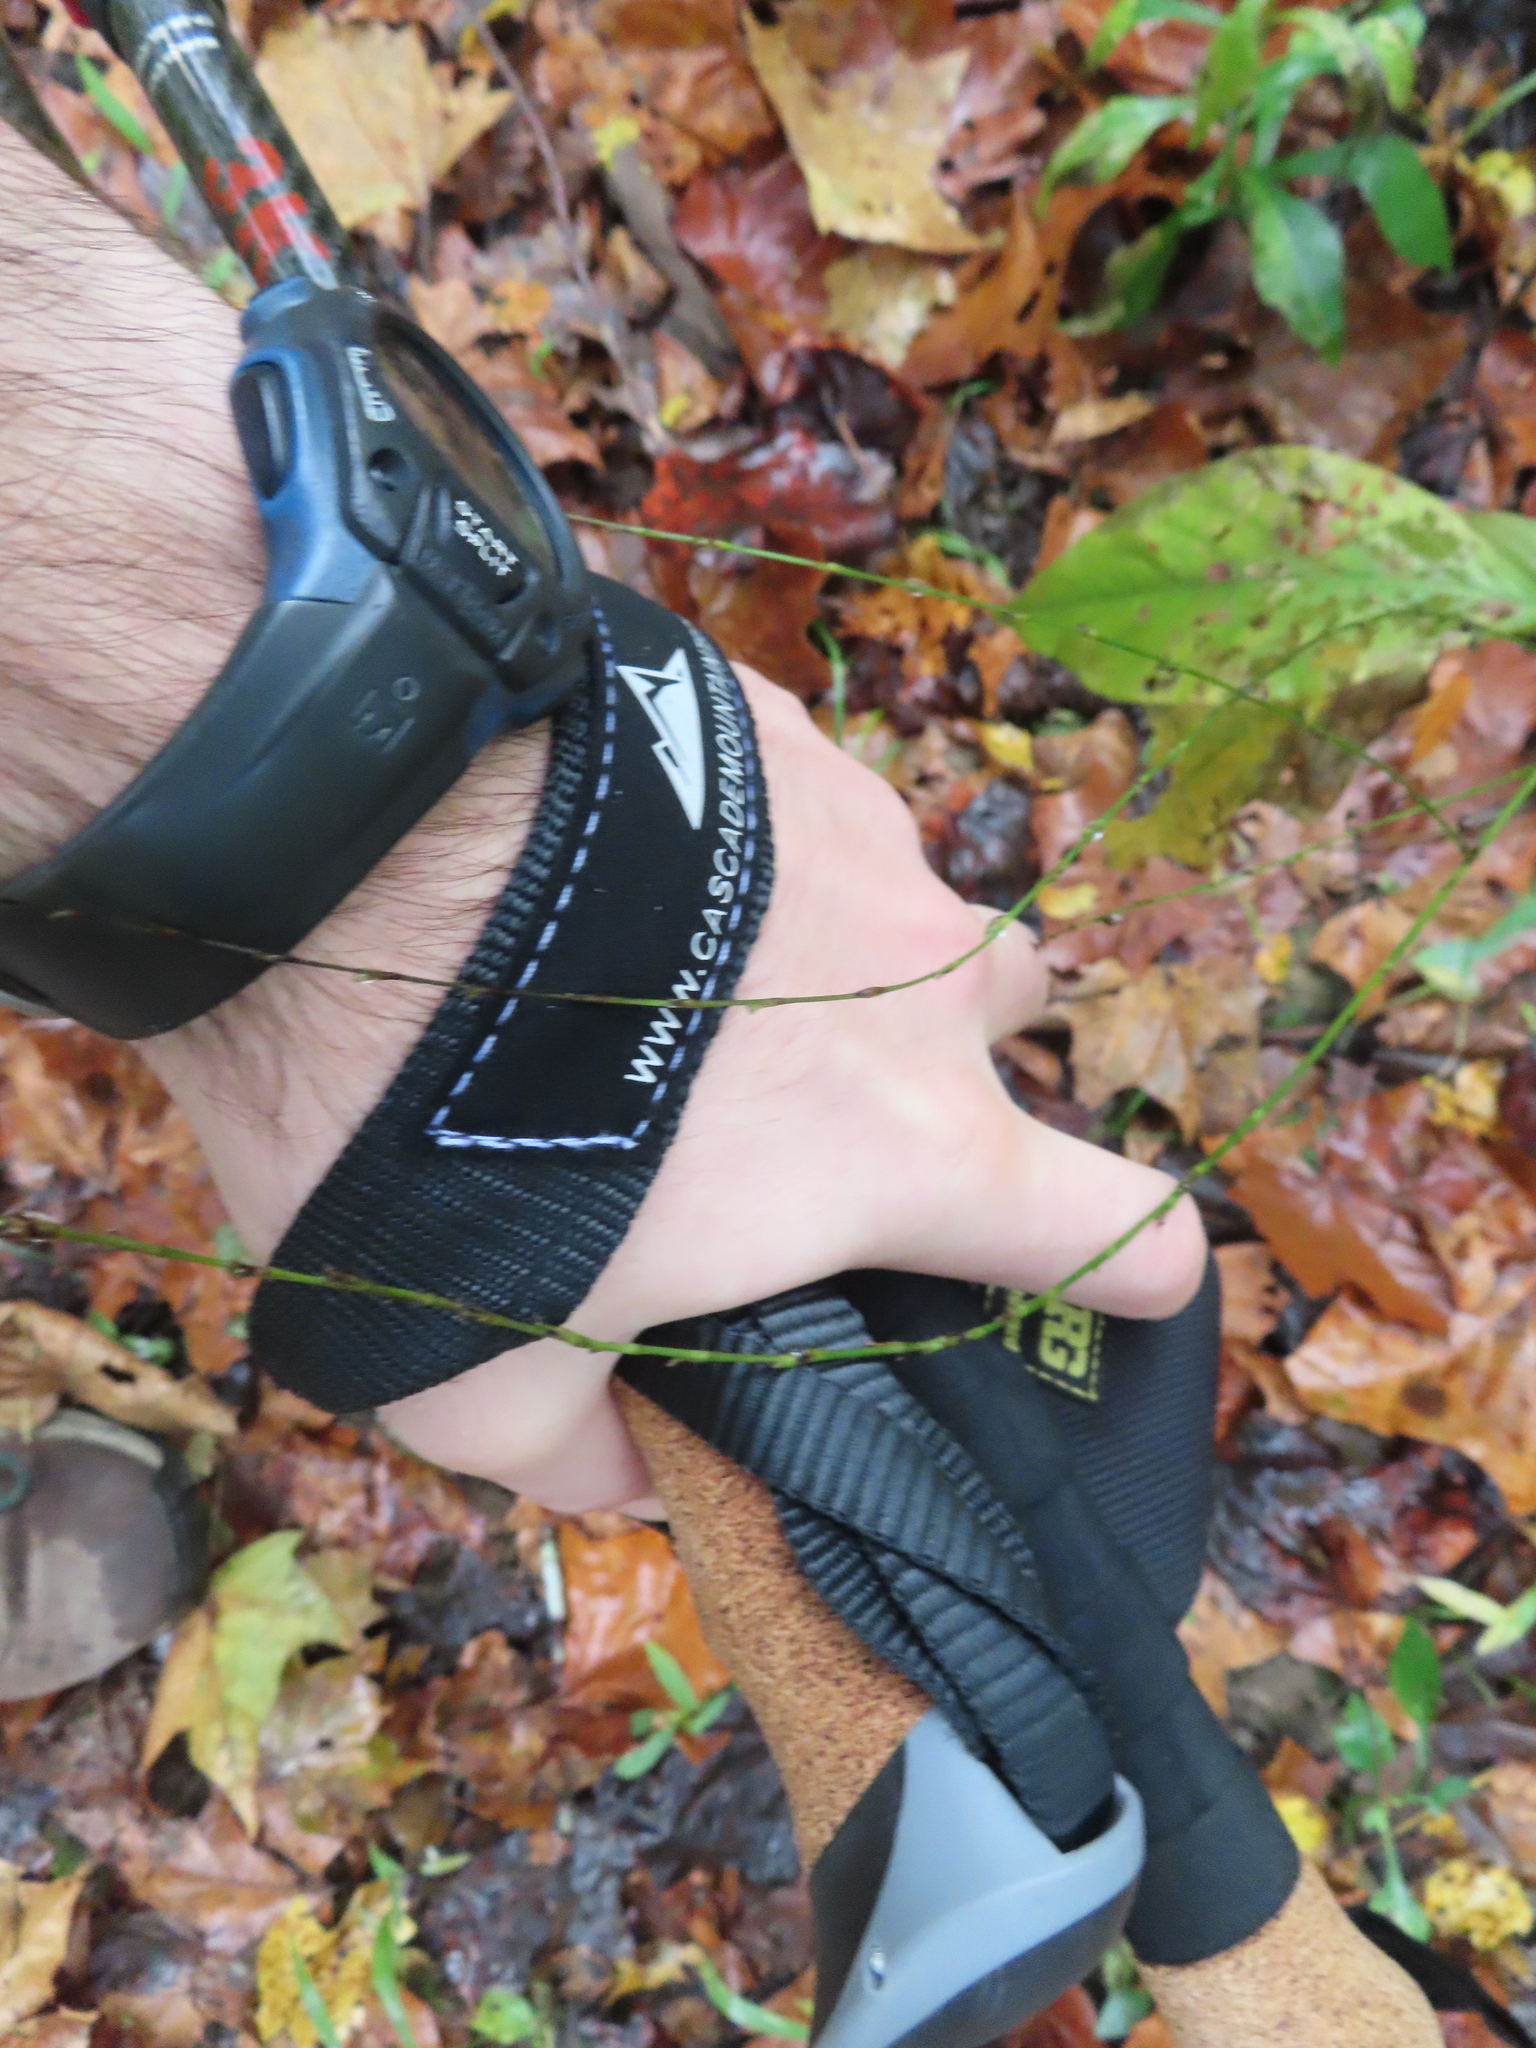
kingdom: Plantae
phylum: Tracheophyta
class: Magnoliopsida
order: Caryophyllales
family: Polygonaceae
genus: Persicaria
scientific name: Persicaria virginiana
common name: Jumpseed
